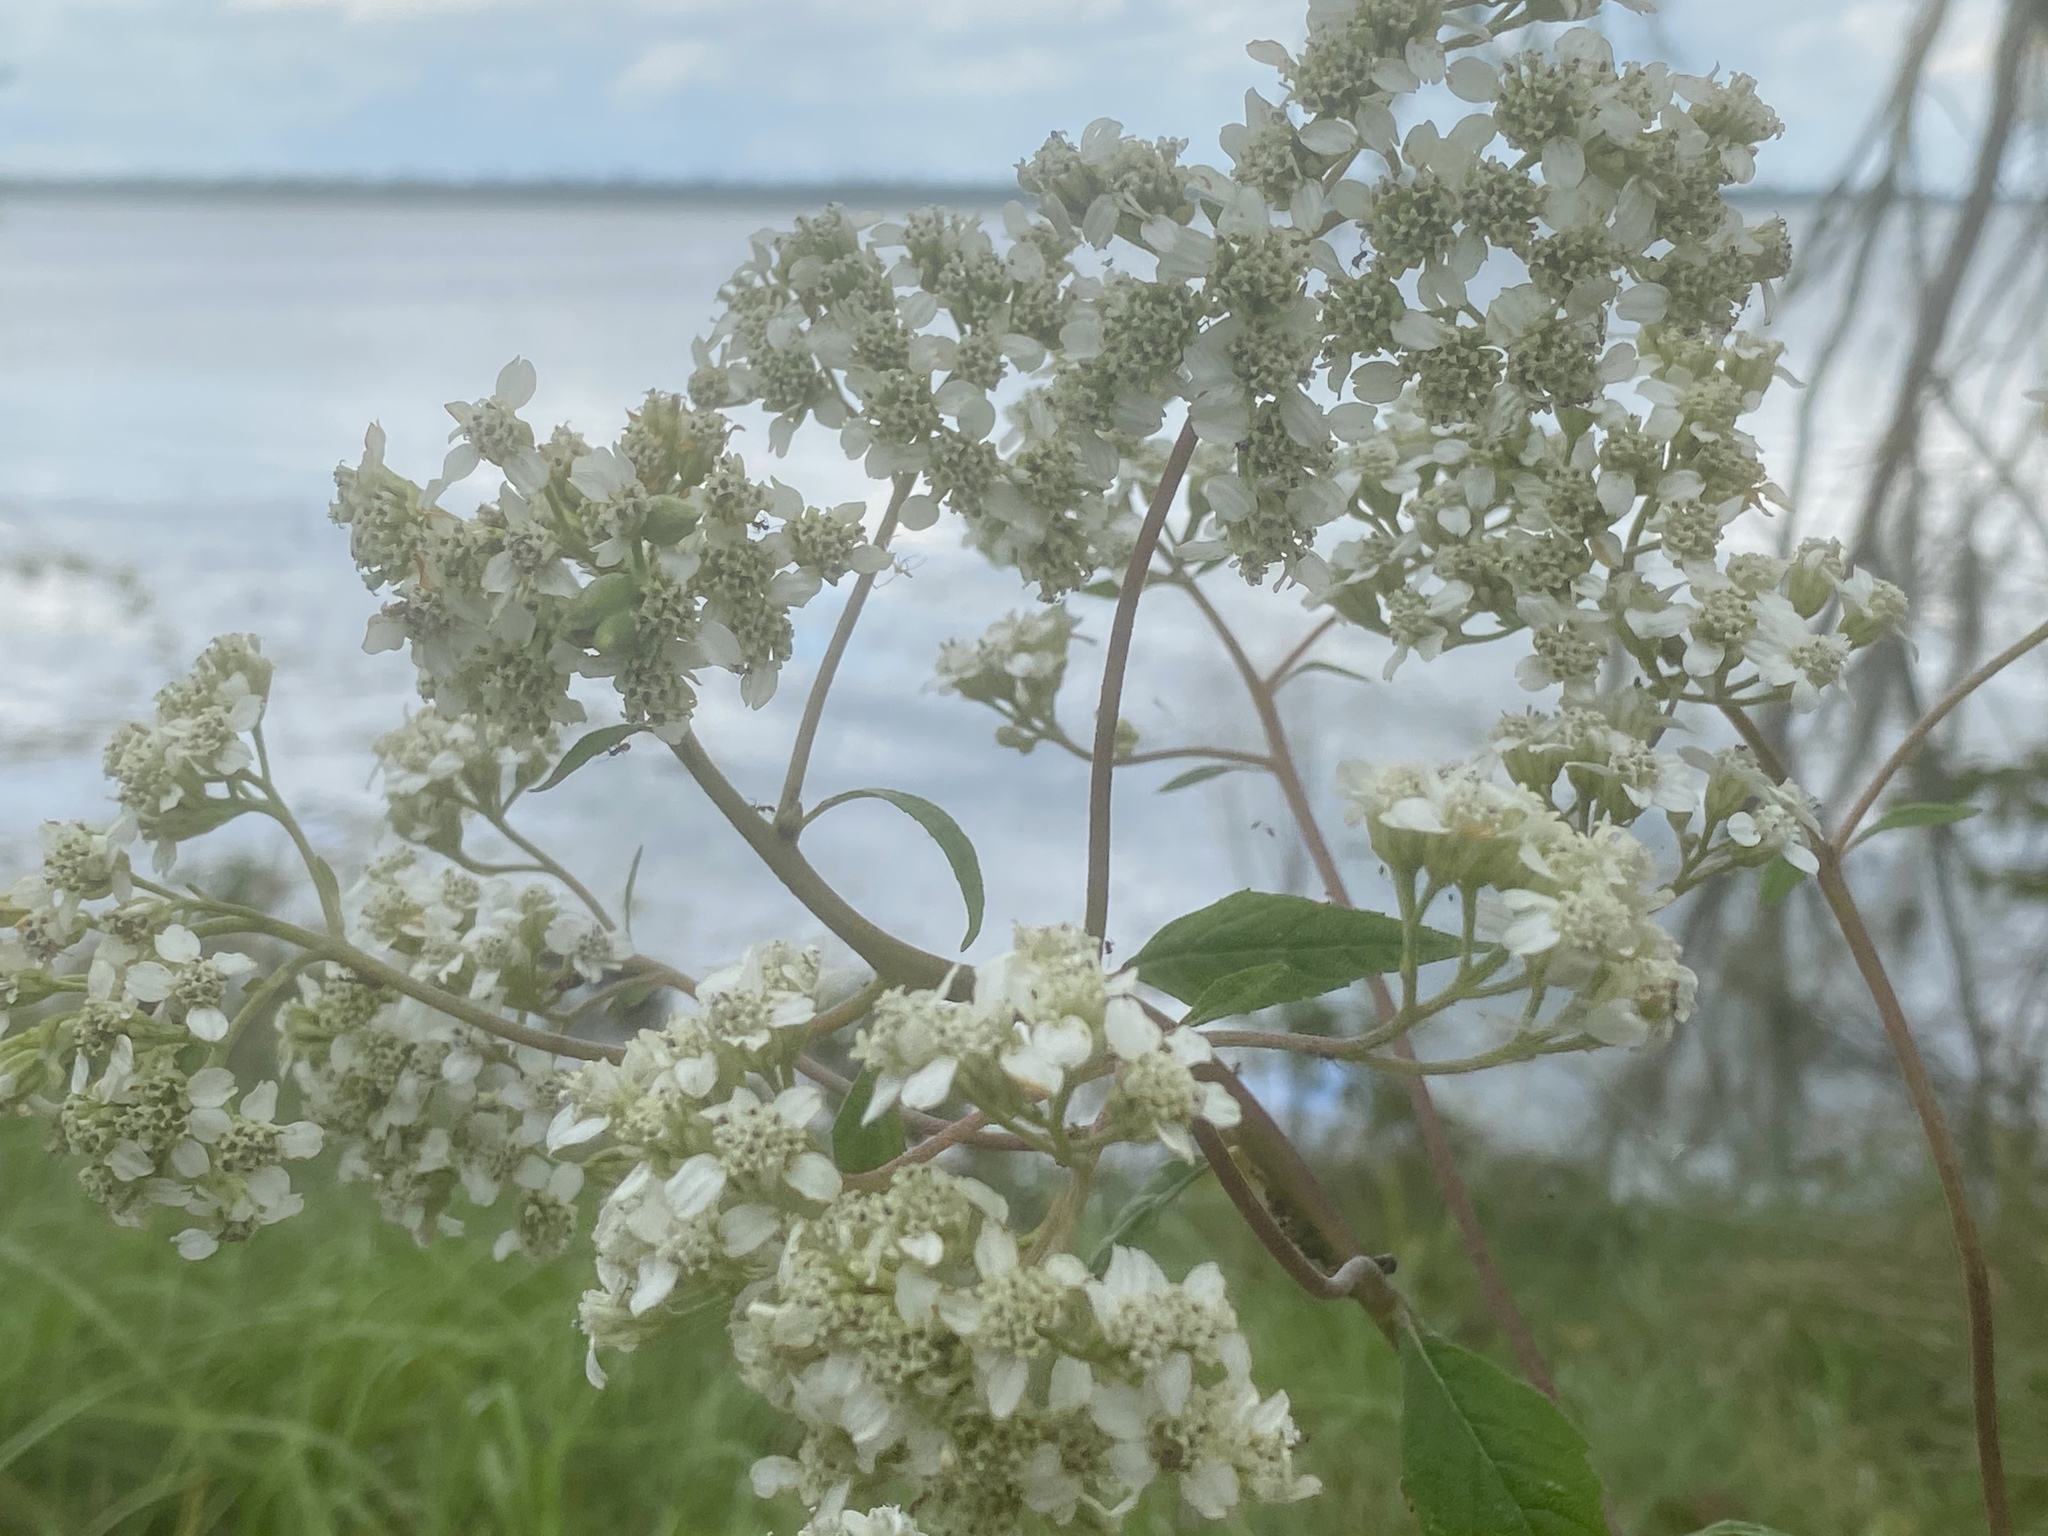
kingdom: Plantae
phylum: Tracheophyta
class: Magnoliopsida
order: Asterales
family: Asteraceae
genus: Verbesina
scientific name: Verbesina virginica
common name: Frostweed
